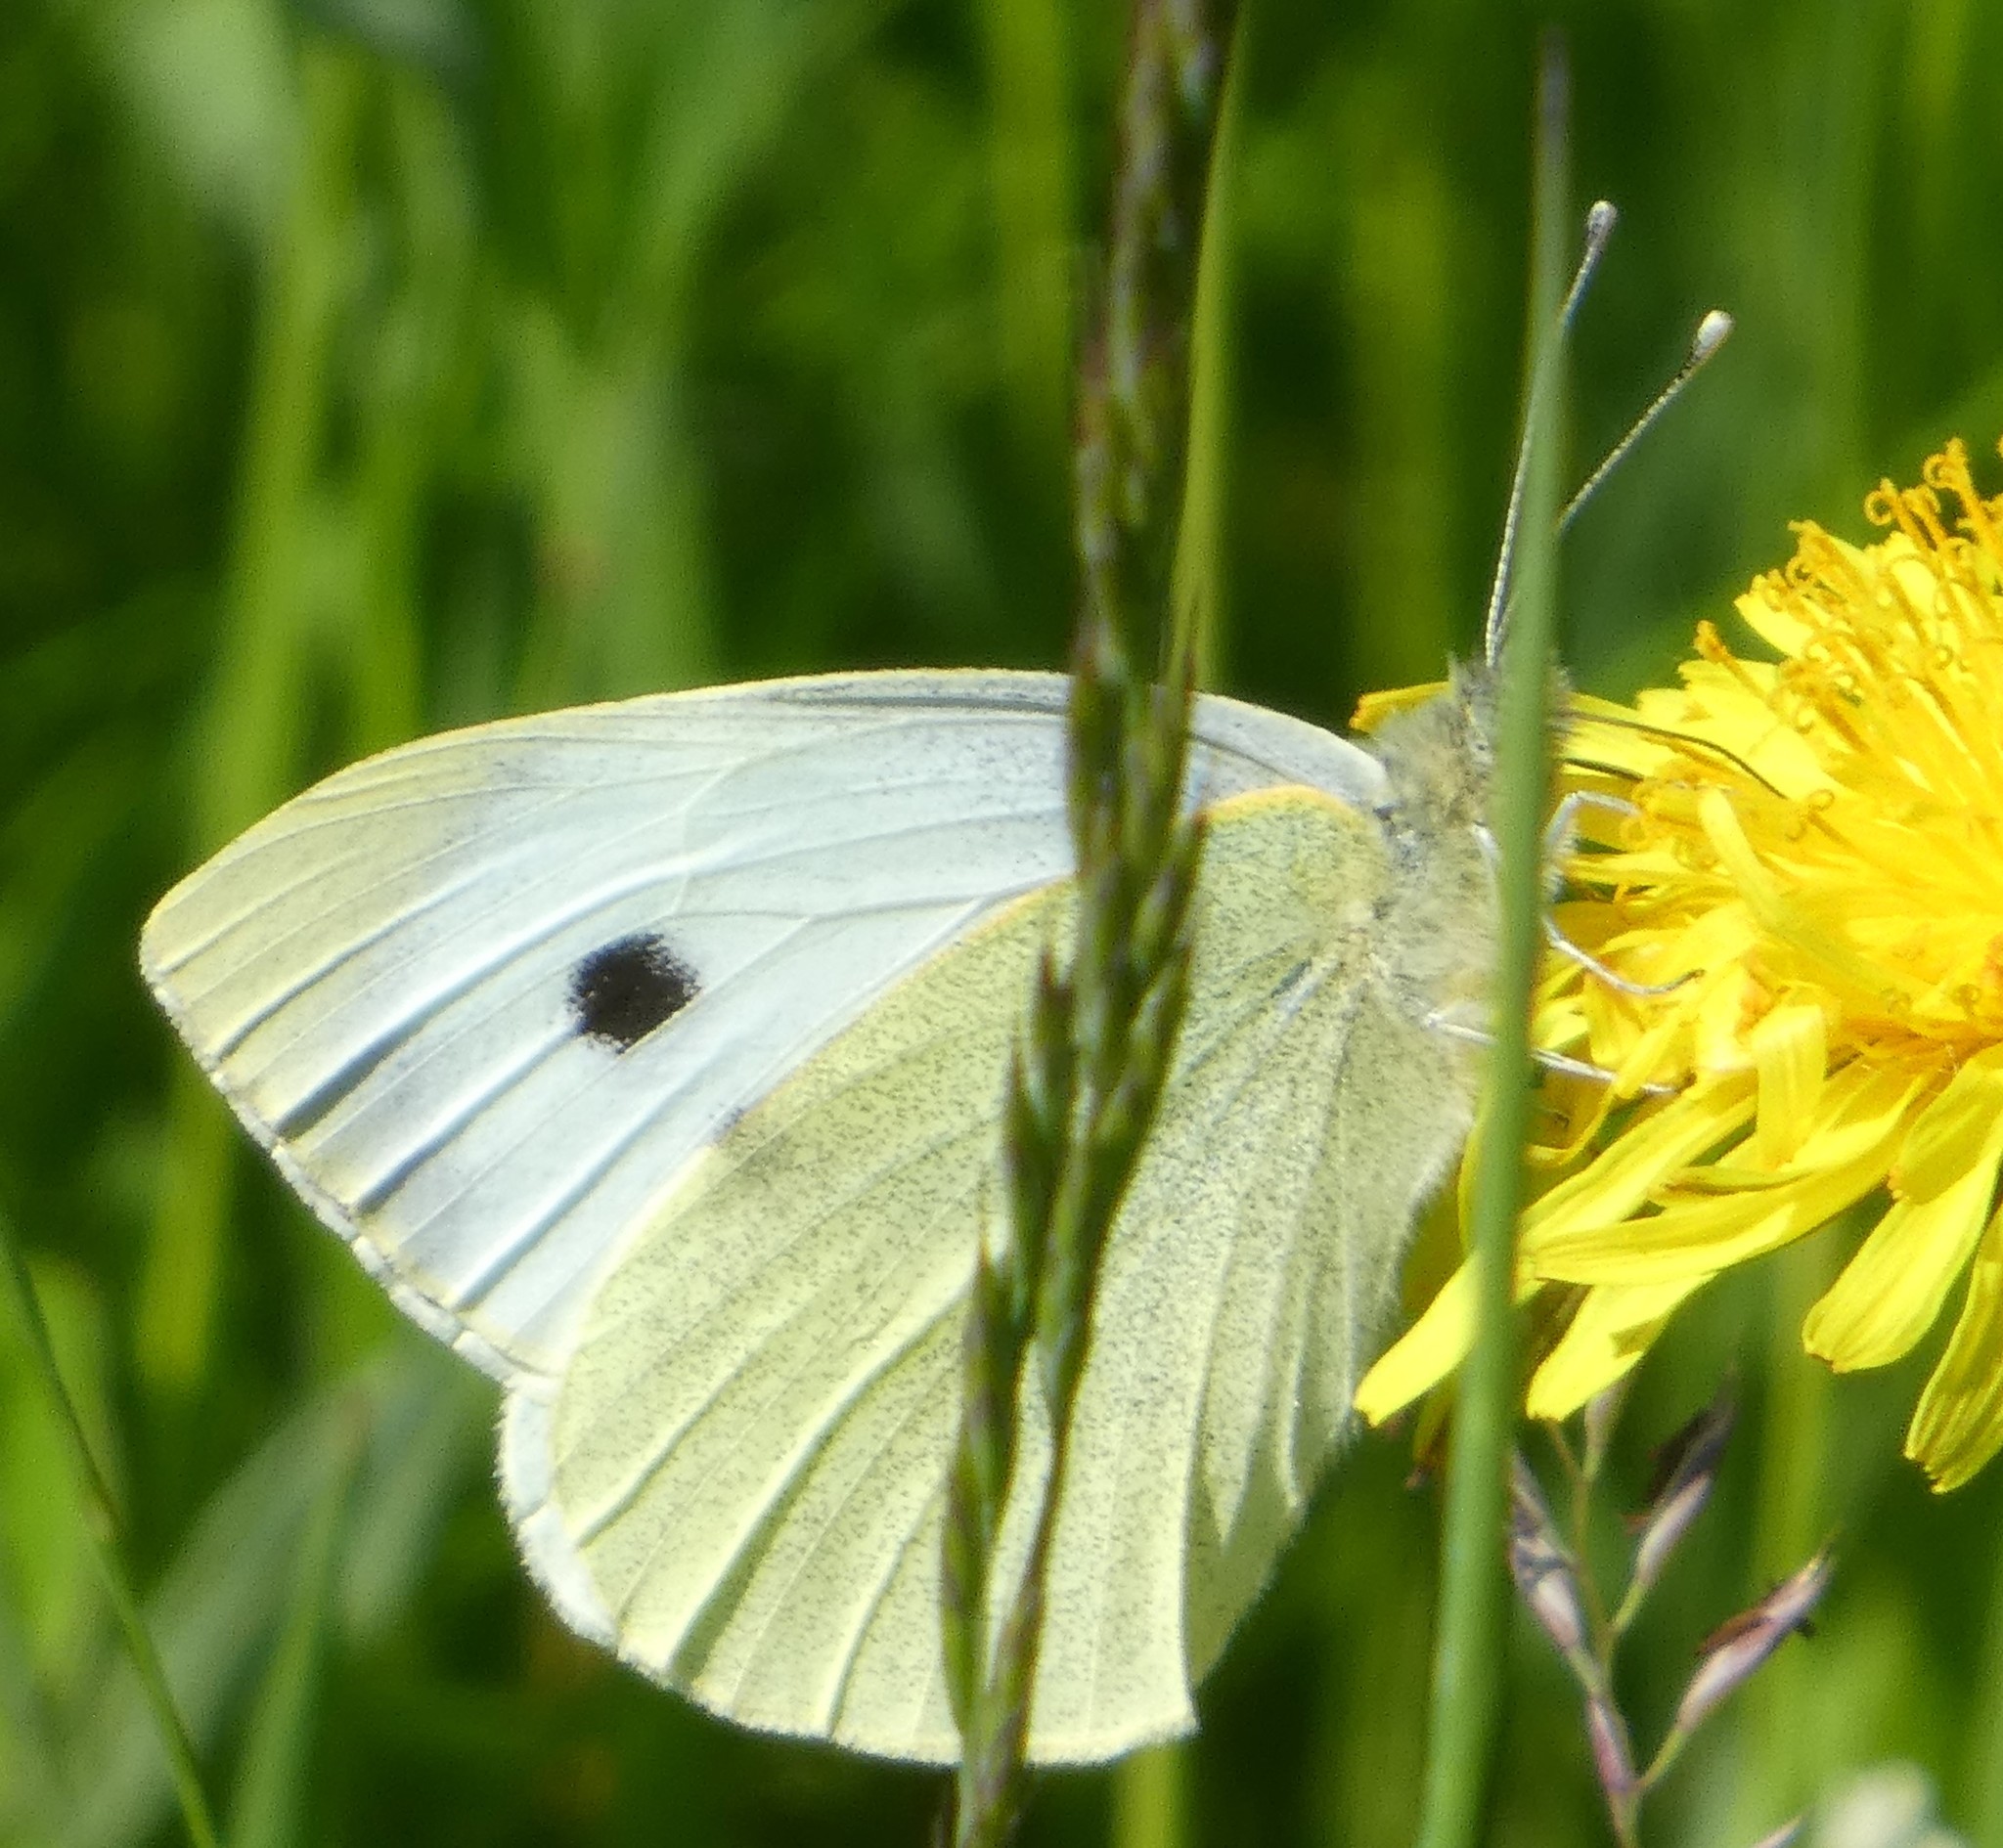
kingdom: Animalia
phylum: Arthropoda
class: Insecta
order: Lepidoptera
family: Pieridae
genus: Pieris
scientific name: Pieris brassicae
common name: Large white
